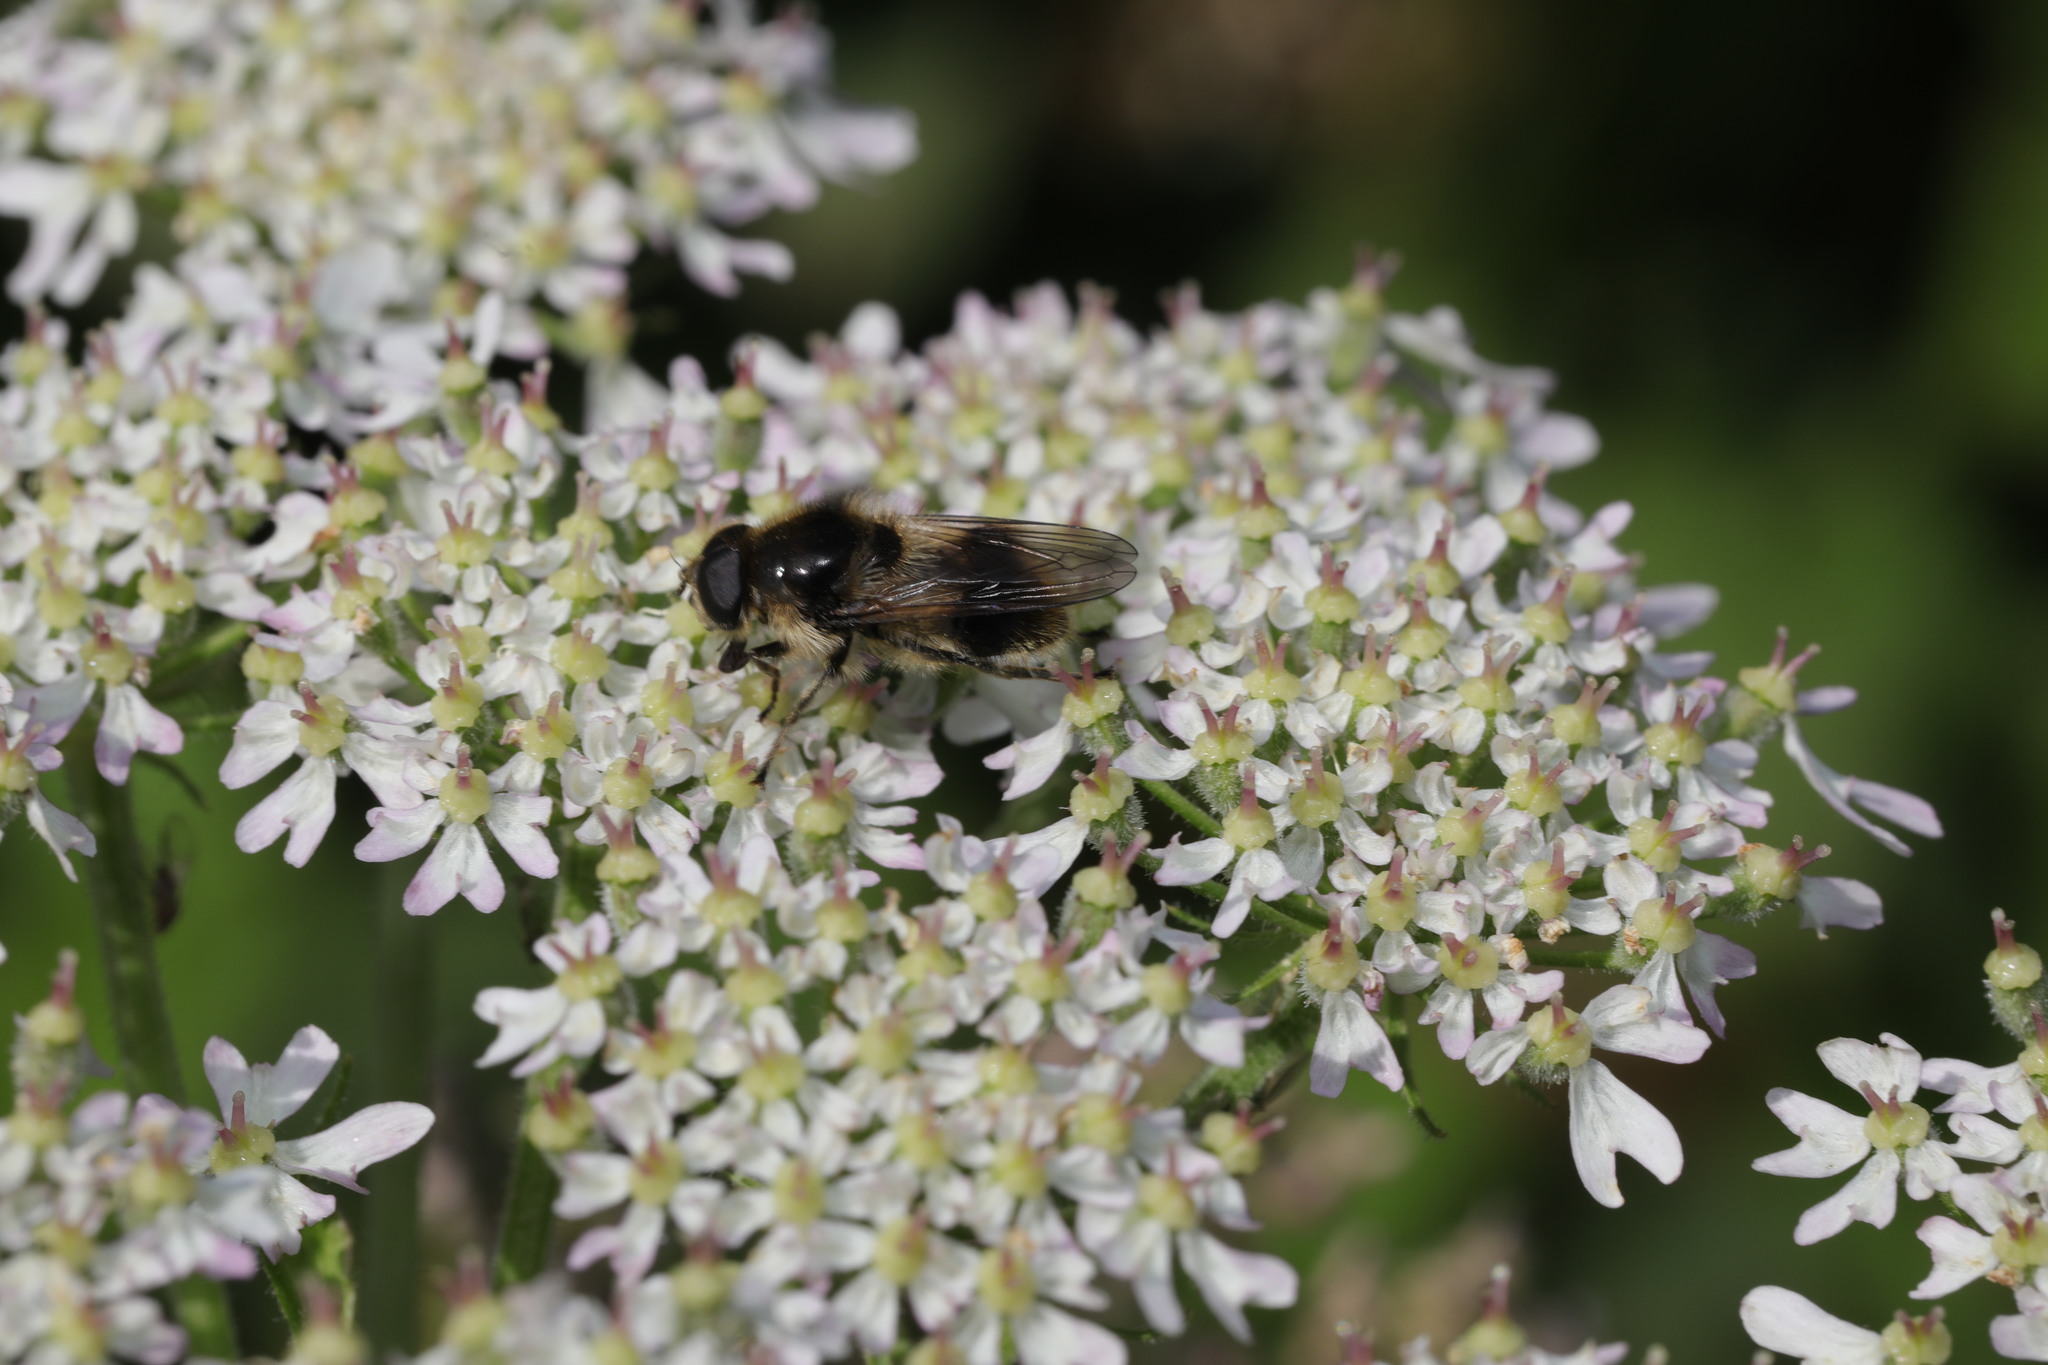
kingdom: Animalia
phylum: Arthropoda
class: Insecta
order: Diptera
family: Syrphidae
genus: Cheilosia
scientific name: Cheilosia illustrata
